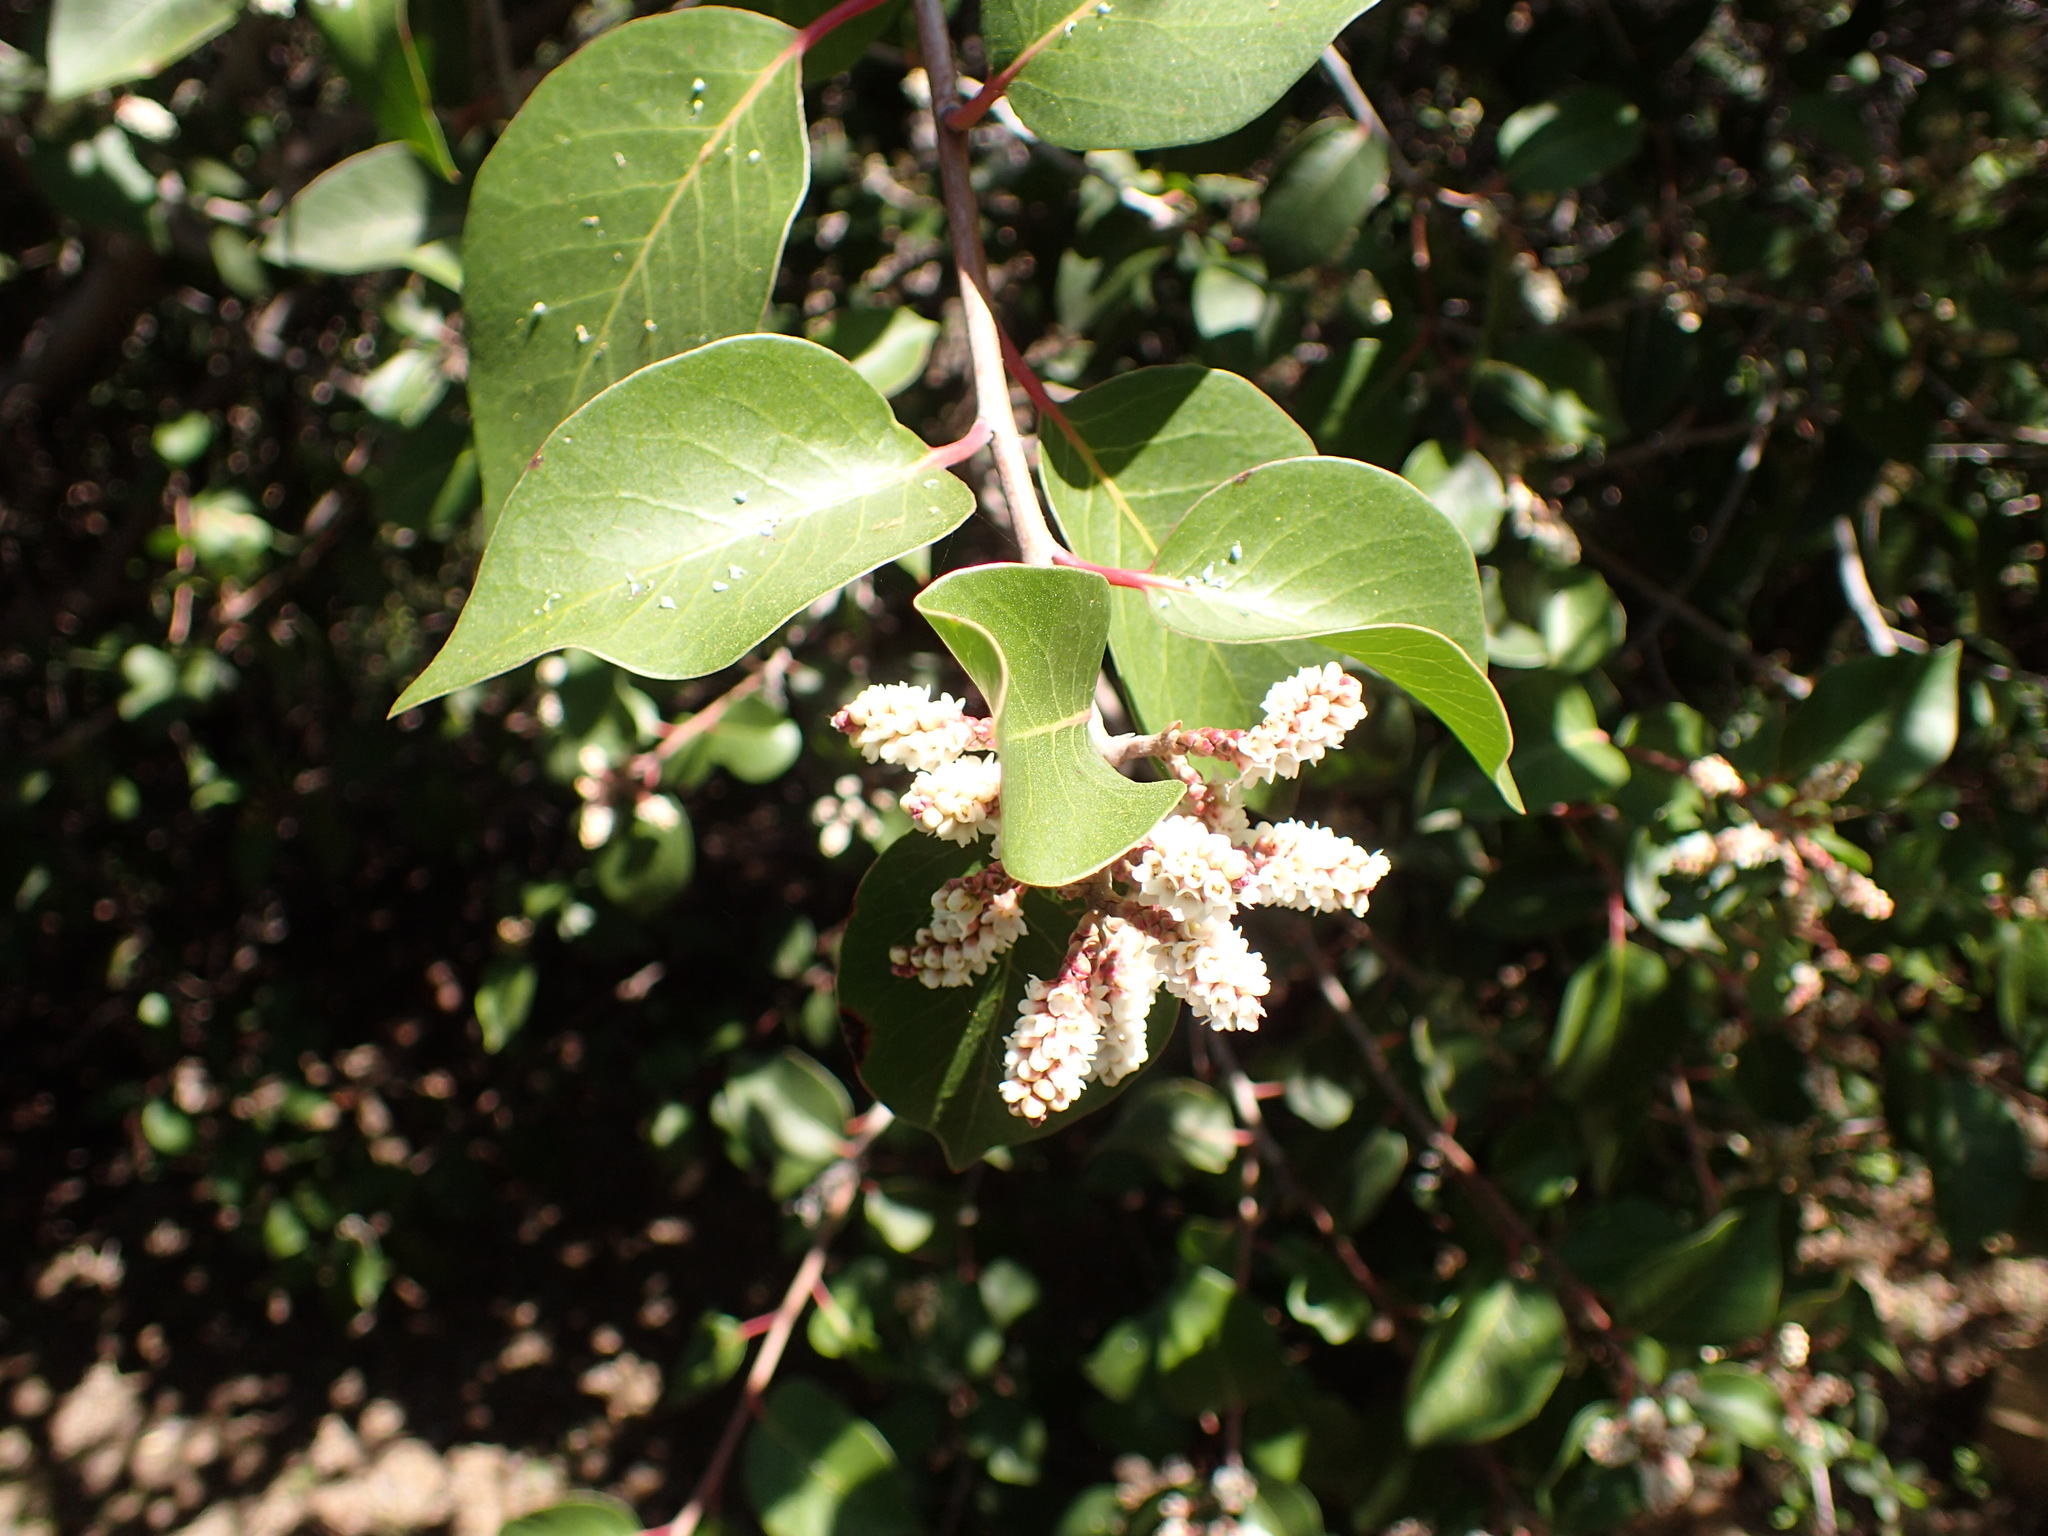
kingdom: Plantae
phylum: Tracheophyta
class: Magnoliopsida
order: Sapindales
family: Anacardiaceae
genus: Rhus
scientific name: Rhus ovata
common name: Sugar sumac
